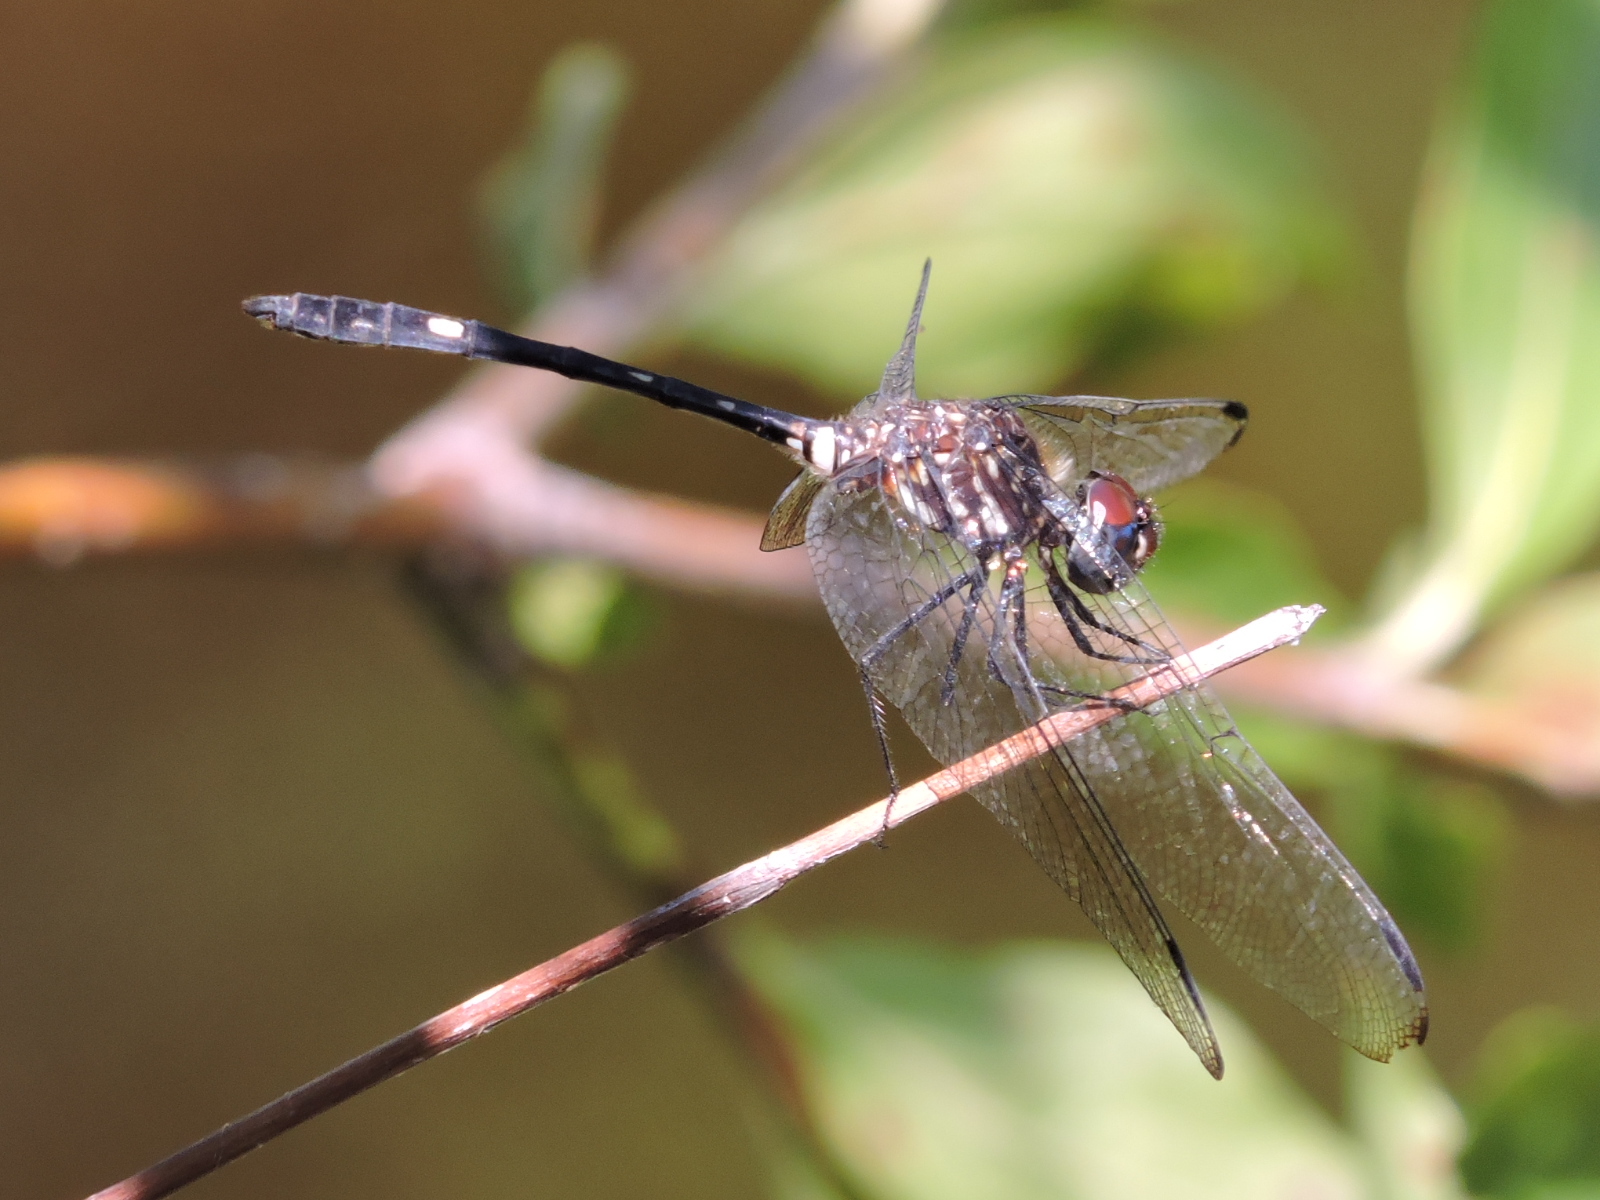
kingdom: Animalia
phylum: Arthropoda
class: Insecta
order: Odonata
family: Libellulidae
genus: Dythemis
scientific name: Dythemis velox
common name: Swift setwing
